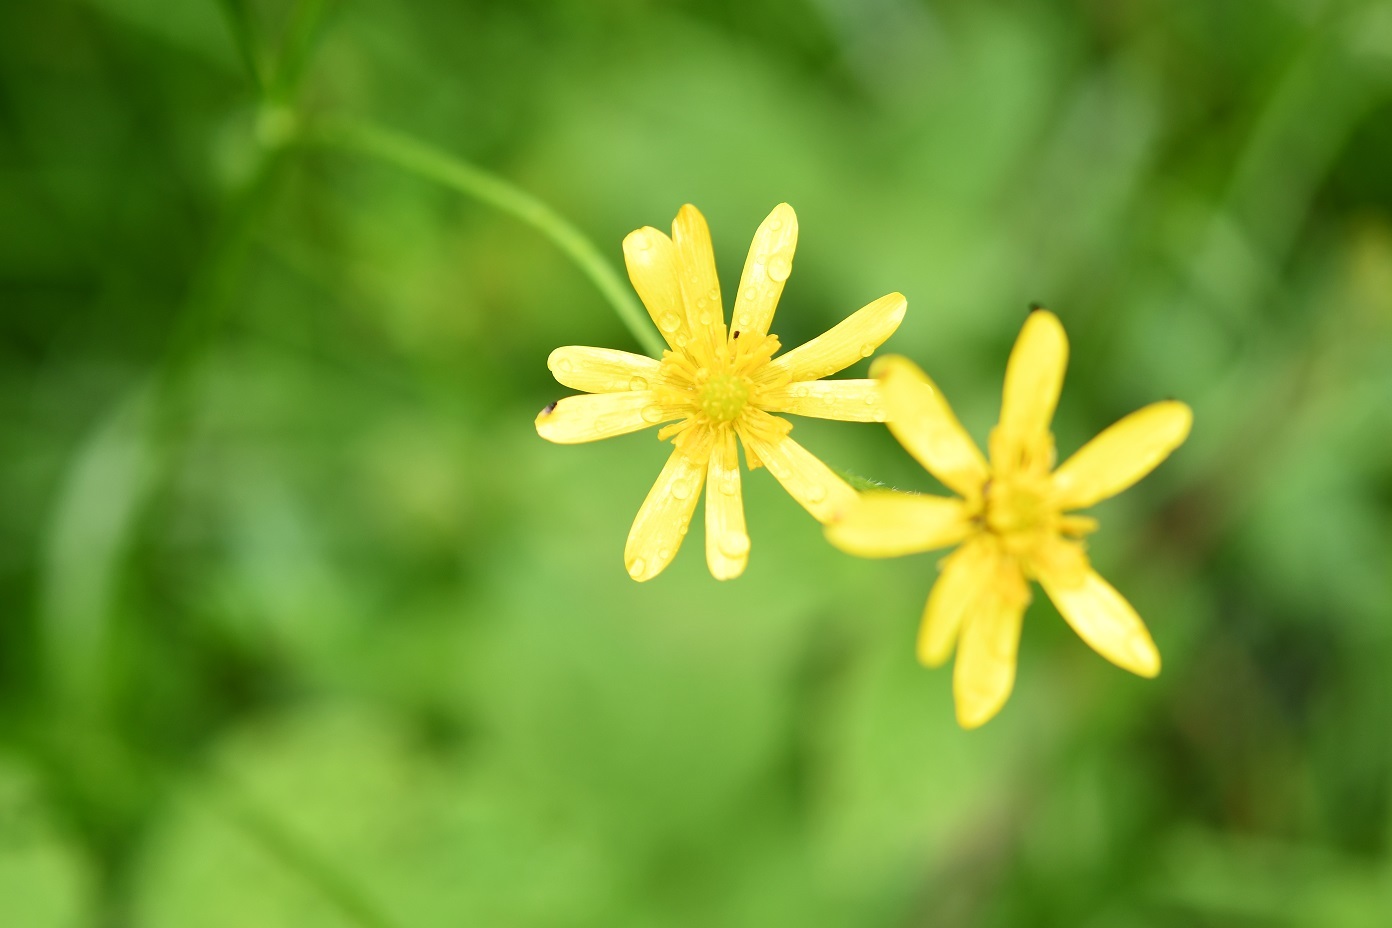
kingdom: Plantae
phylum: Tracheophyta
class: Magnoliopsida
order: Ranunculales
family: Ranunculaceae
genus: Ranunculus
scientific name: Ranunculus petiolaris
